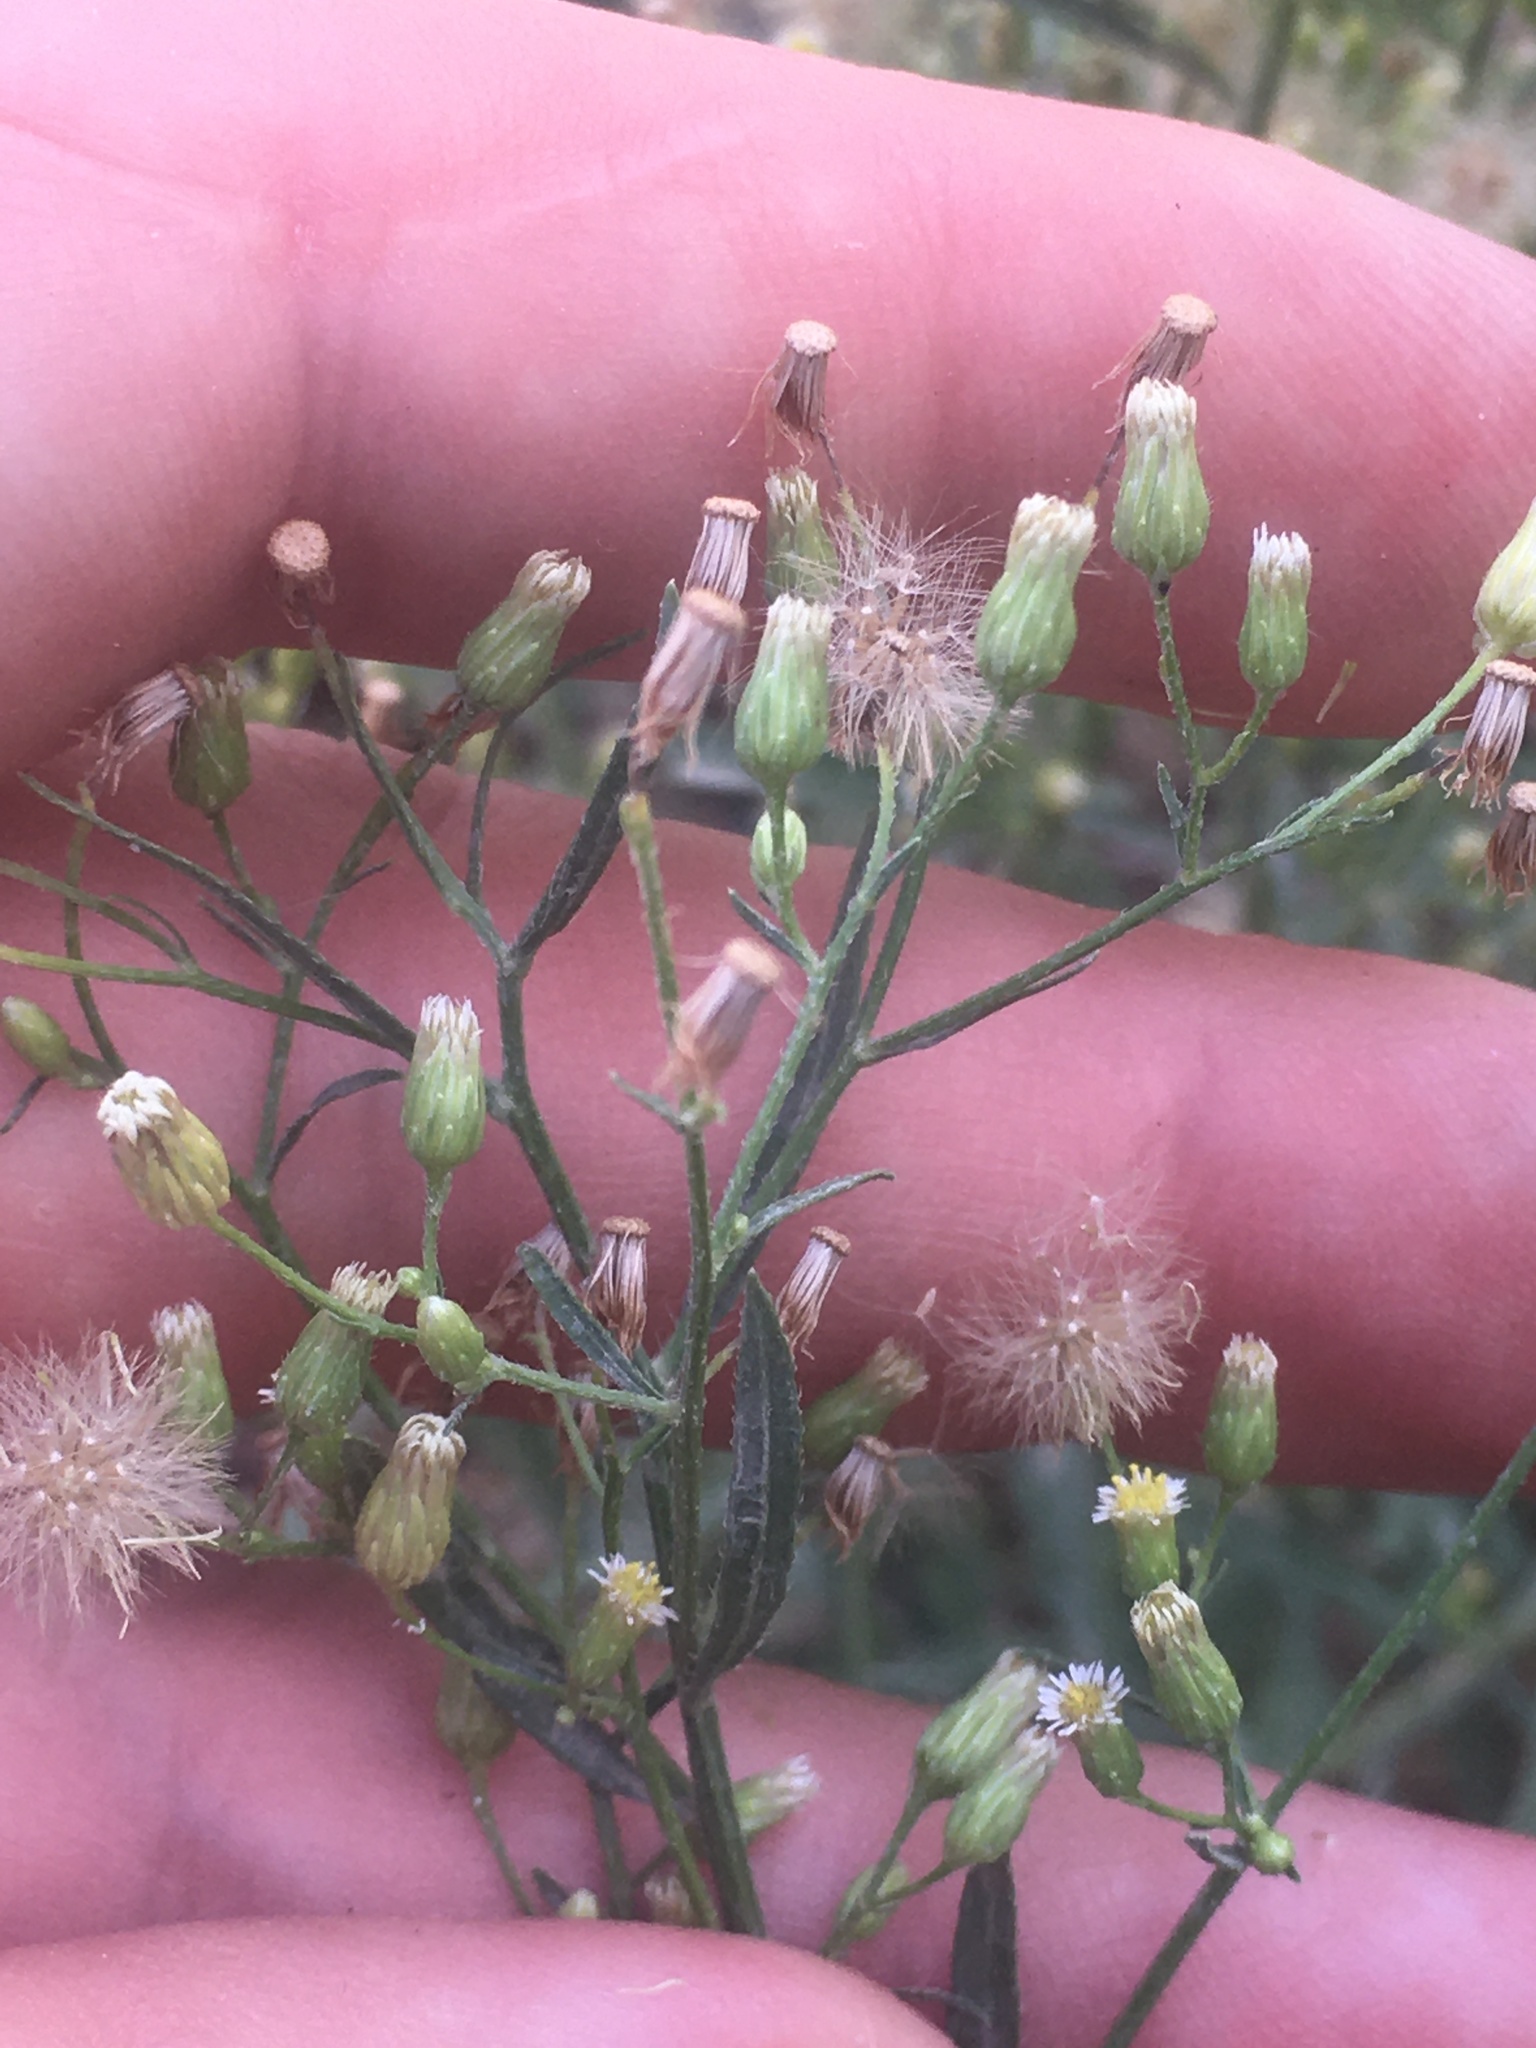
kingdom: Plantae
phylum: Tracheophyta
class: Magnoliopsida
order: Asterales
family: Asteraceae
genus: Erigeron
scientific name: Erigeron canadensis
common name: Canadian fleabane
